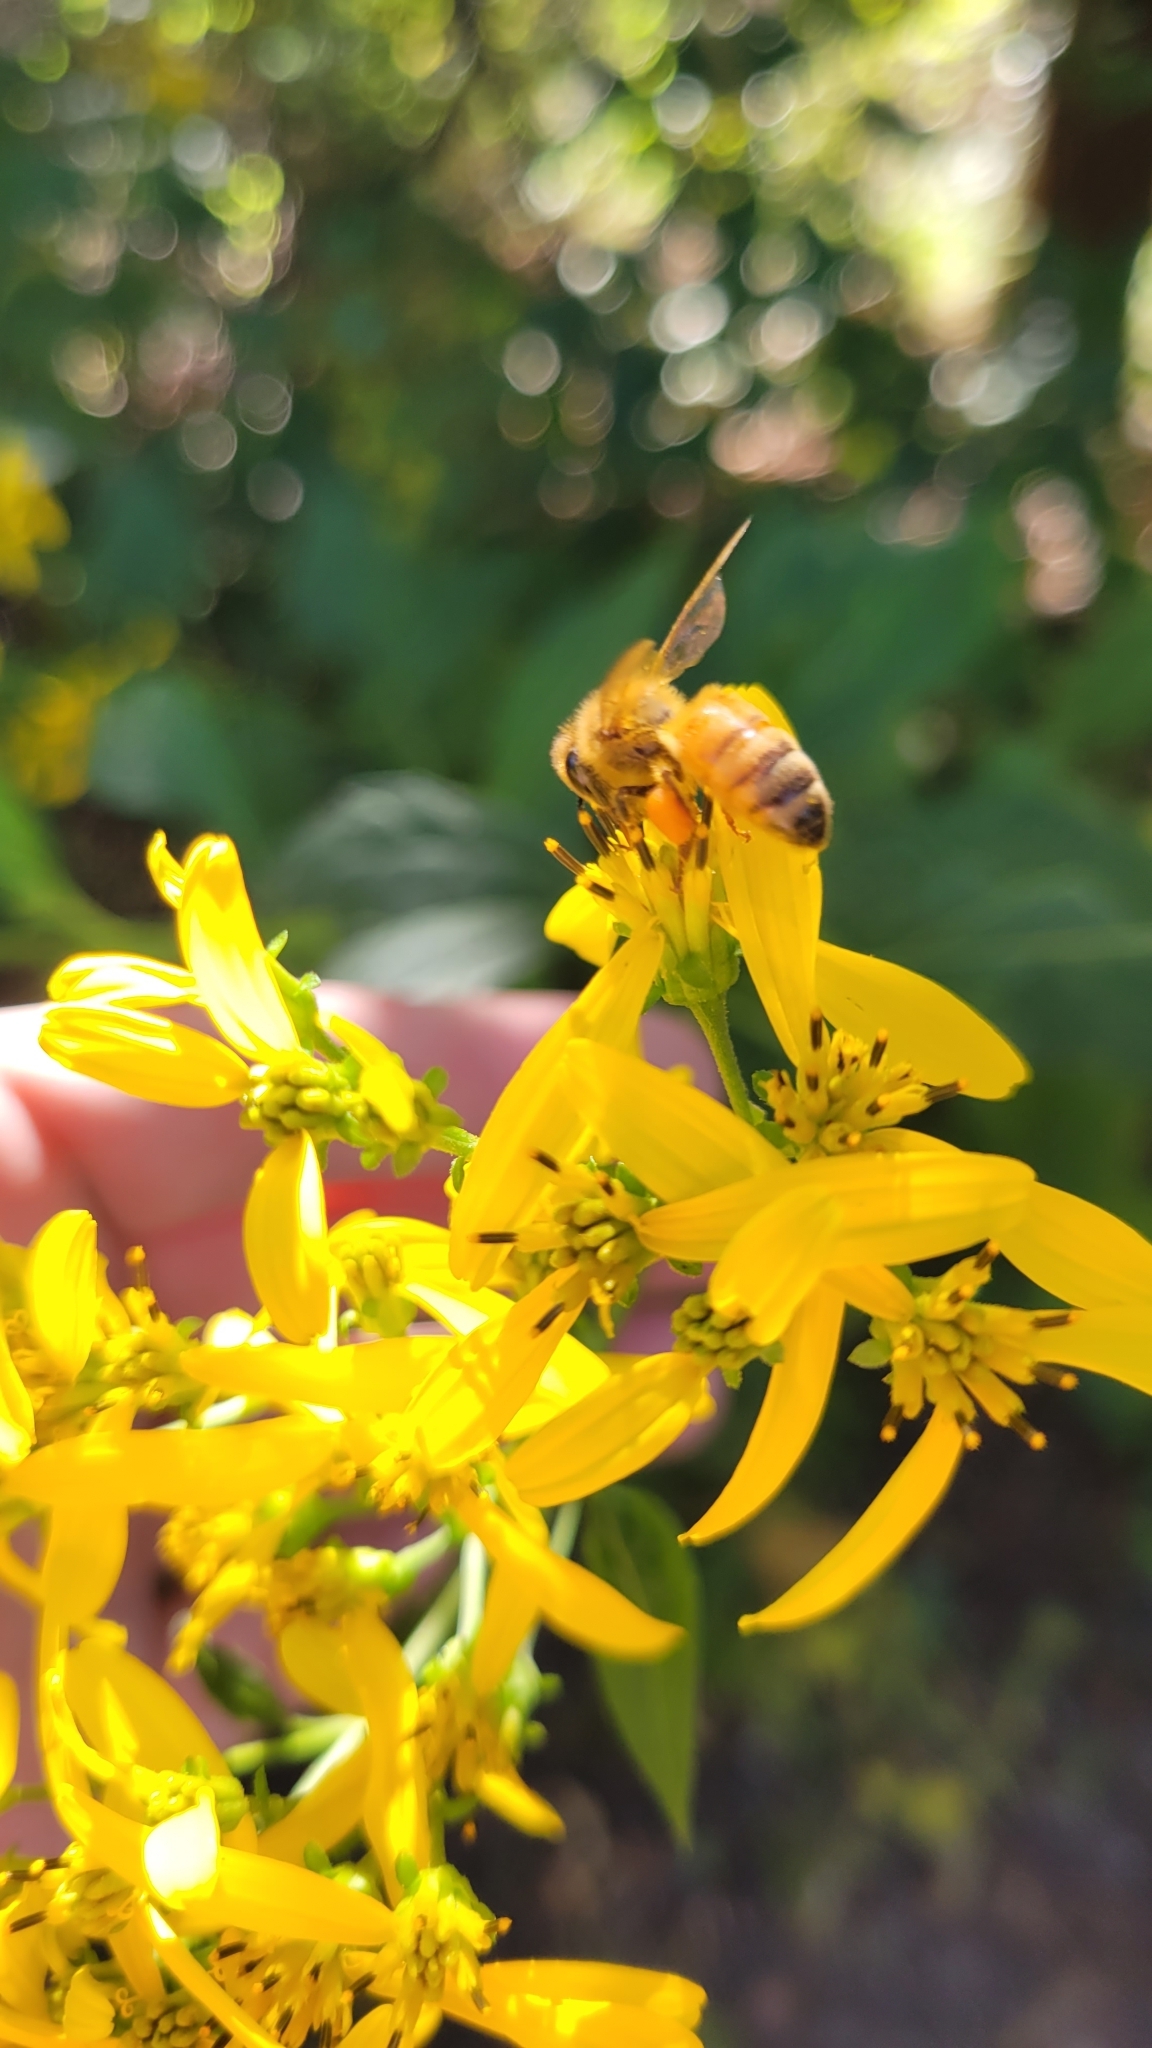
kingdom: Animalia
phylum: Arthropoda
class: Insecta
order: Hymenoptera
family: Apidae
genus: Apis
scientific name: Apis mellifera
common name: Honey bee
